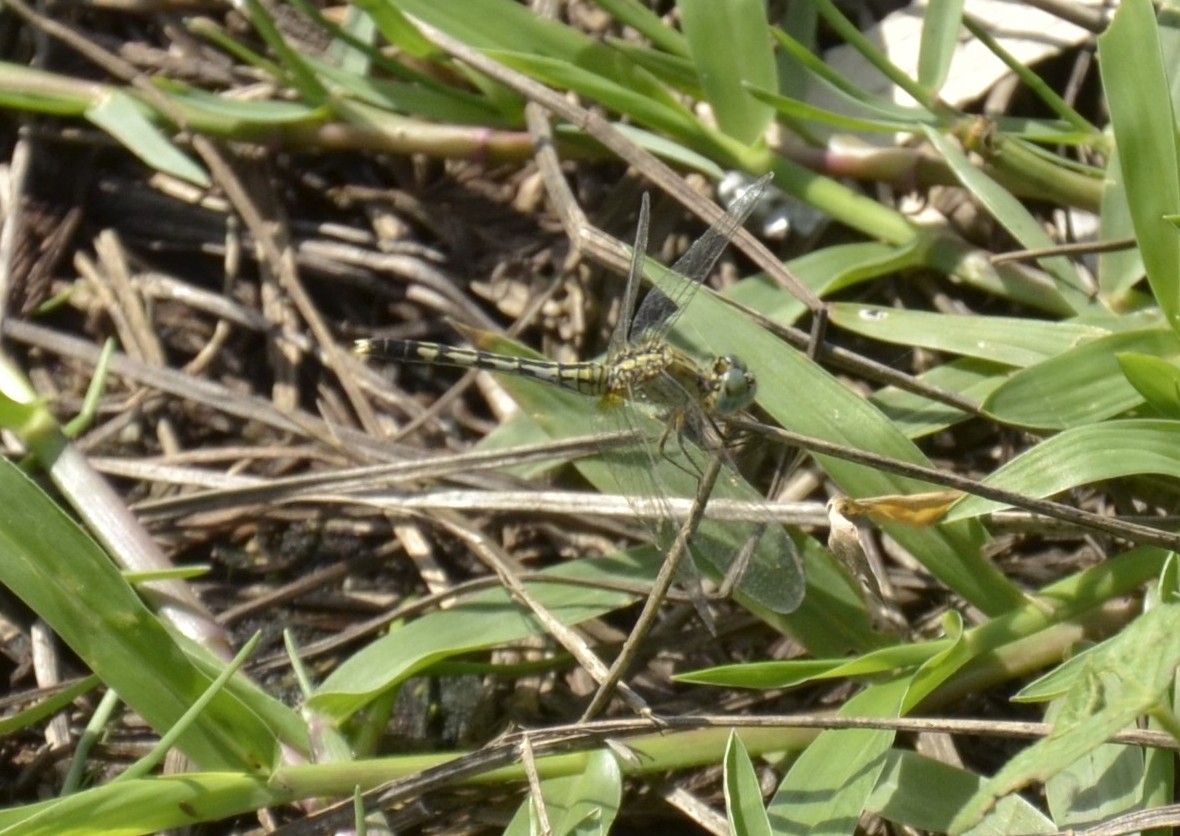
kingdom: Animalia
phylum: Arthropoda
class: Insecta
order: Odonata
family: Libellulidae
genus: Diplacodes
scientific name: Diplacodes trivialis
